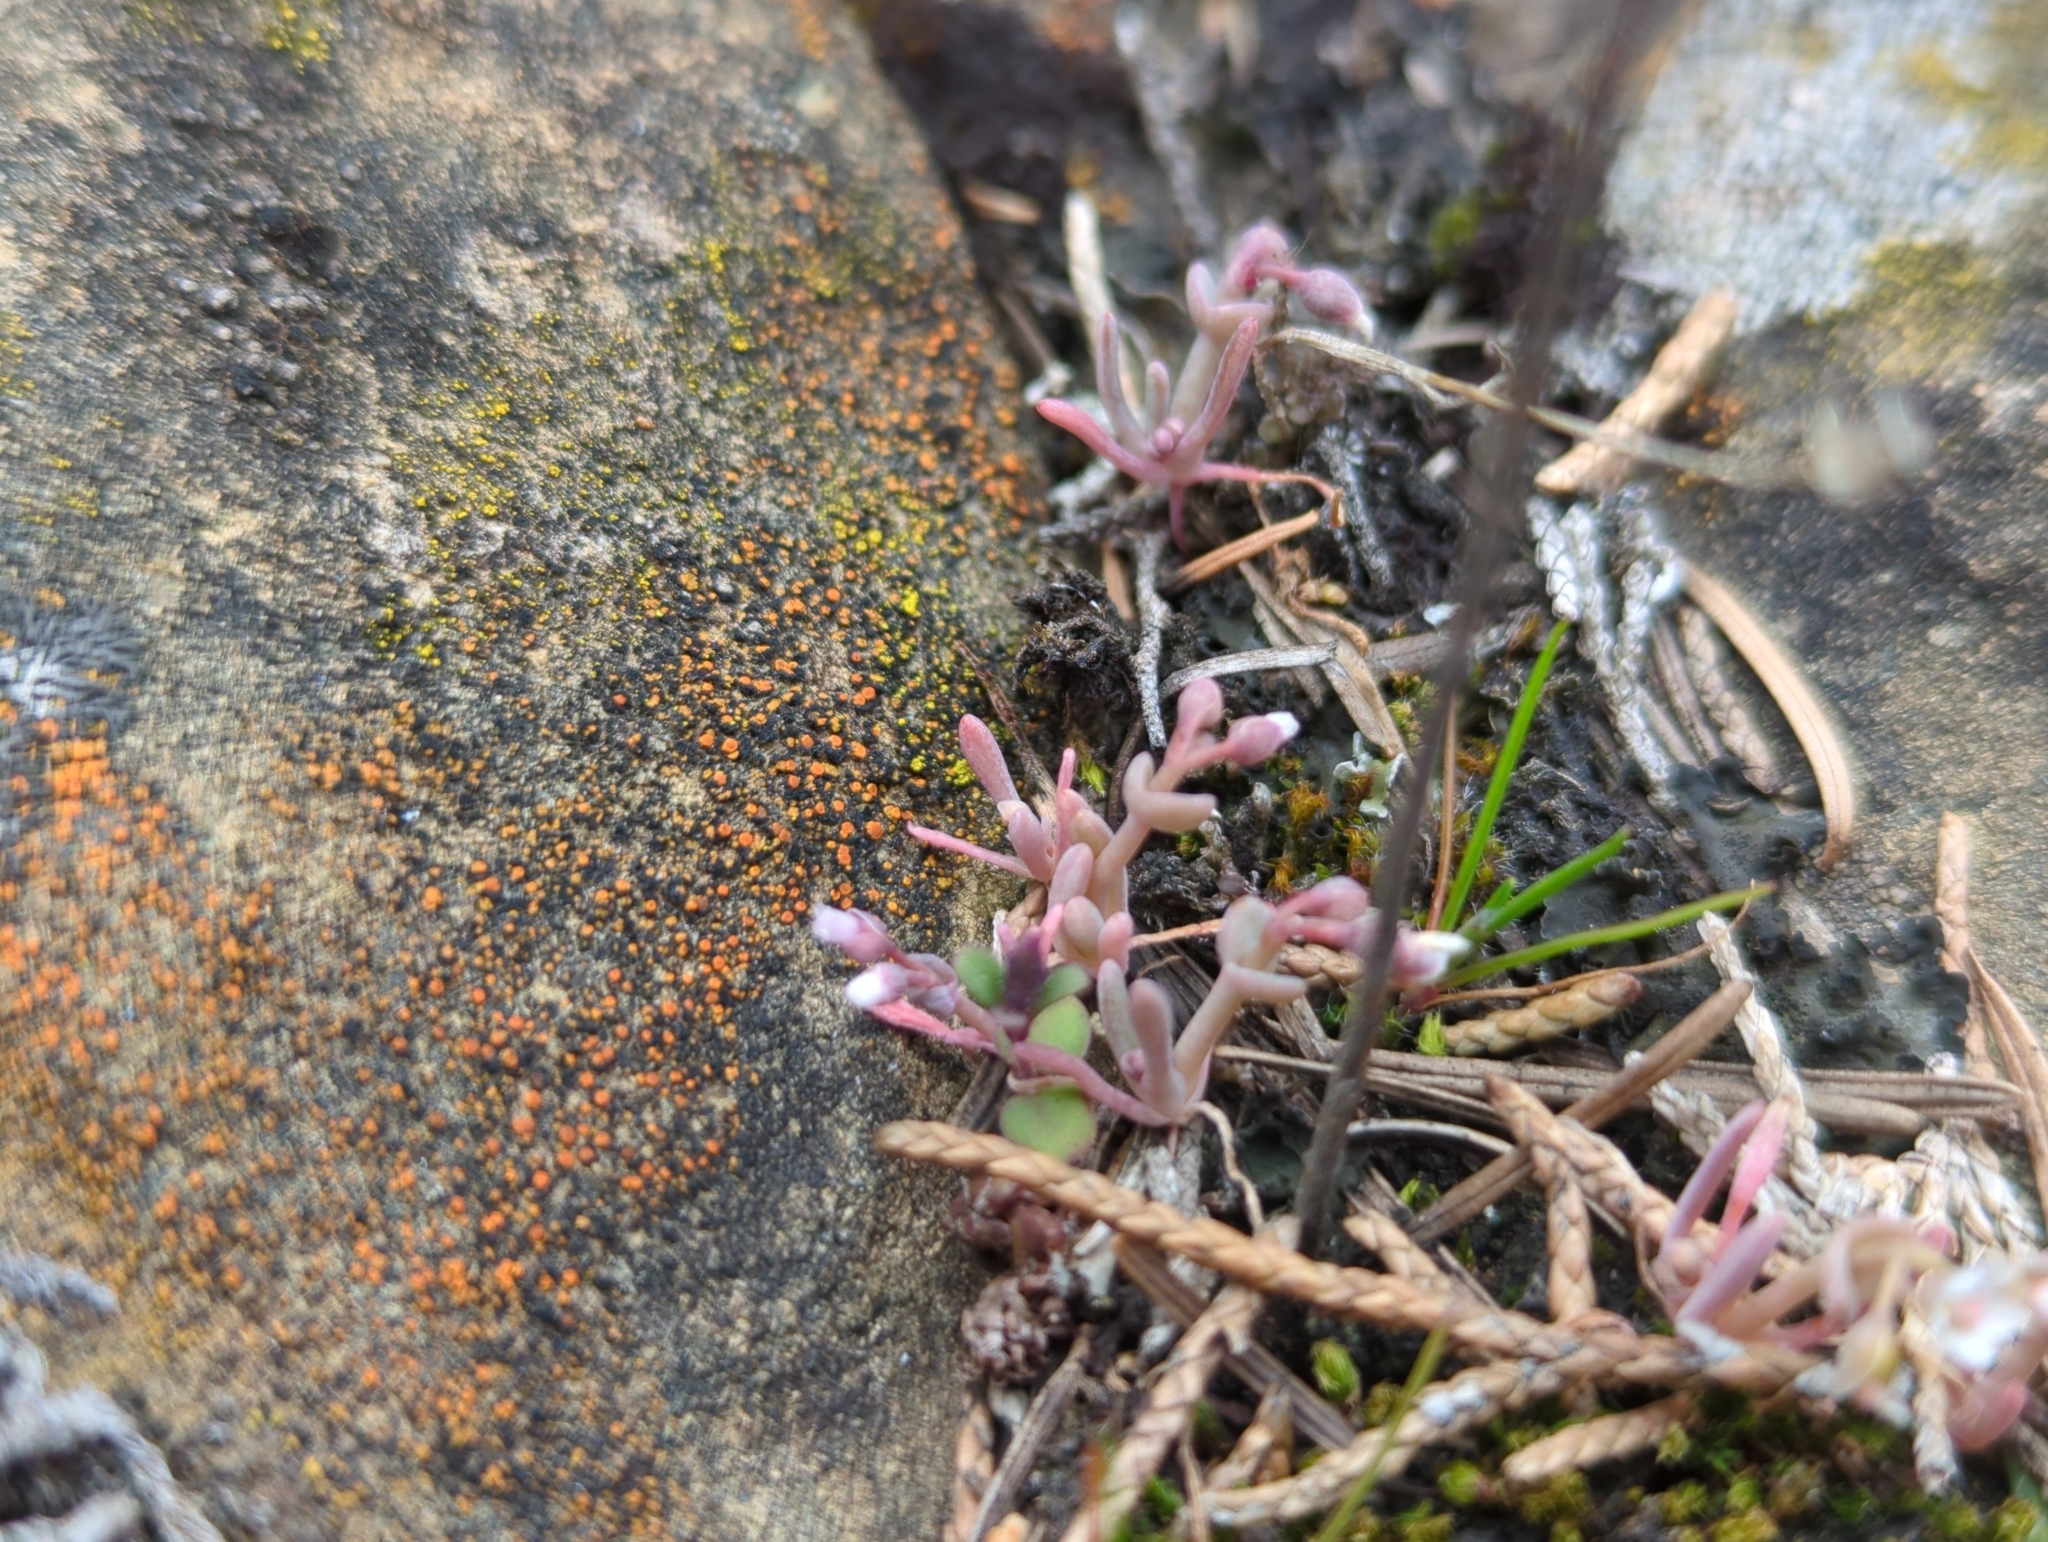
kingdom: Plantae
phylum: Tracheophyta
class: Magnoliopsida
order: Caryophyllales
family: Montiaceae
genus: Claytonia
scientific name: Claytonia exigua
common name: Pale spring beauty
